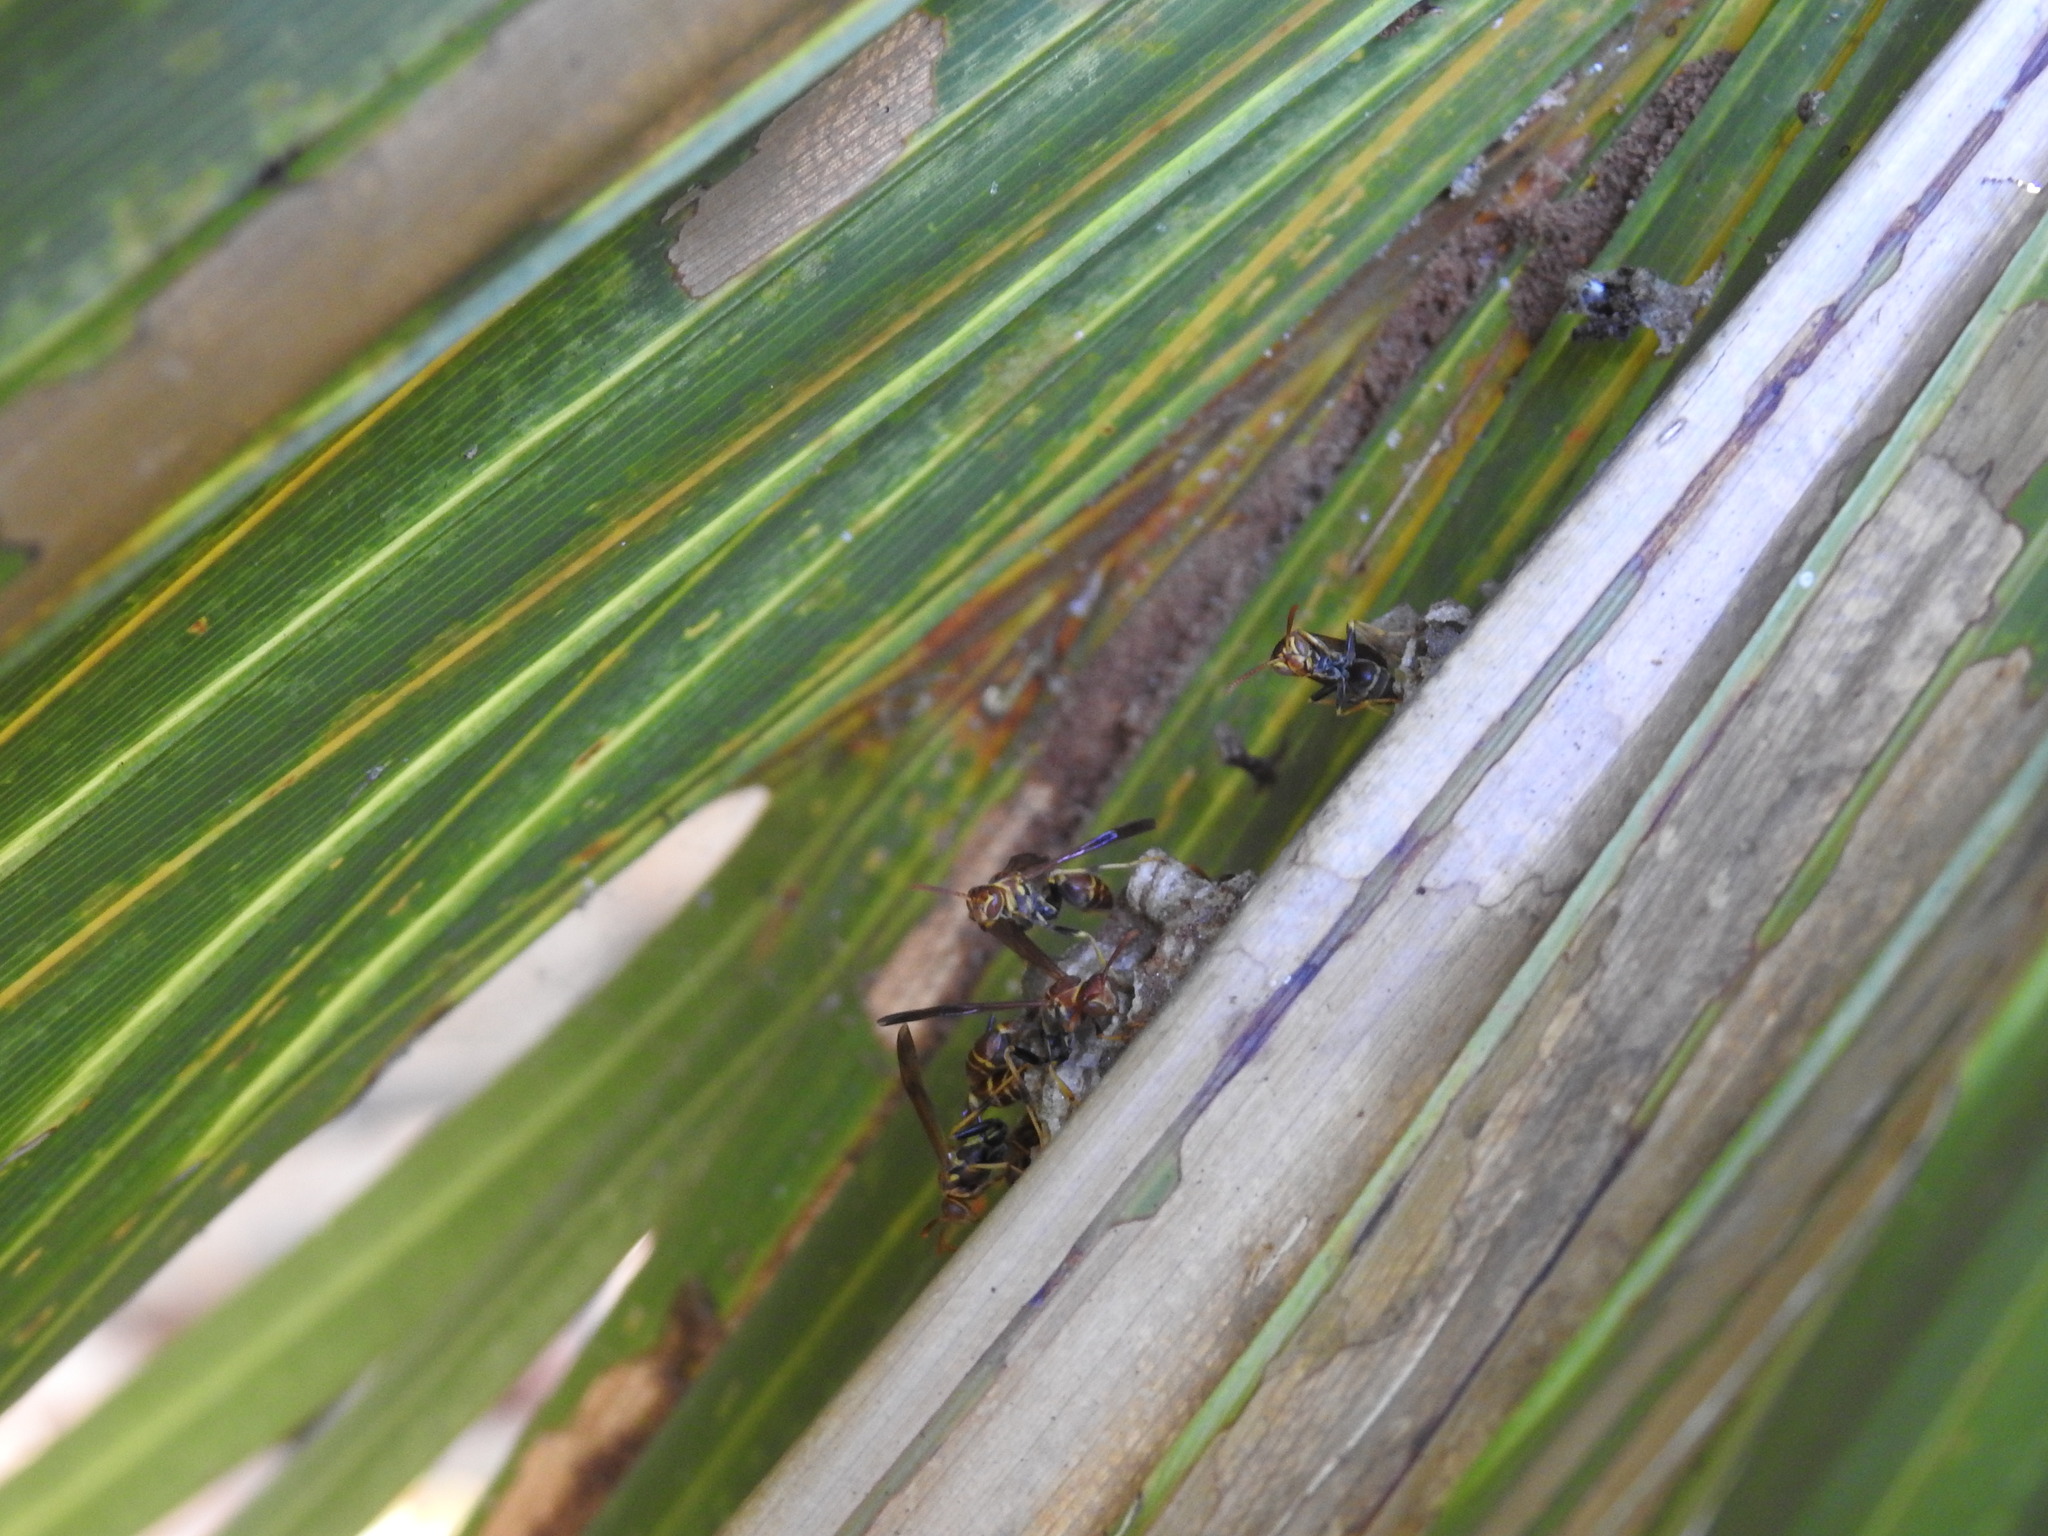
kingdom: Animalia
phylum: Arthropoda
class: Insecta
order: Hymenoptera
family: Vespidae
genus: Mischocyttarus
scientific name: Mischocyttarus mexicanus
